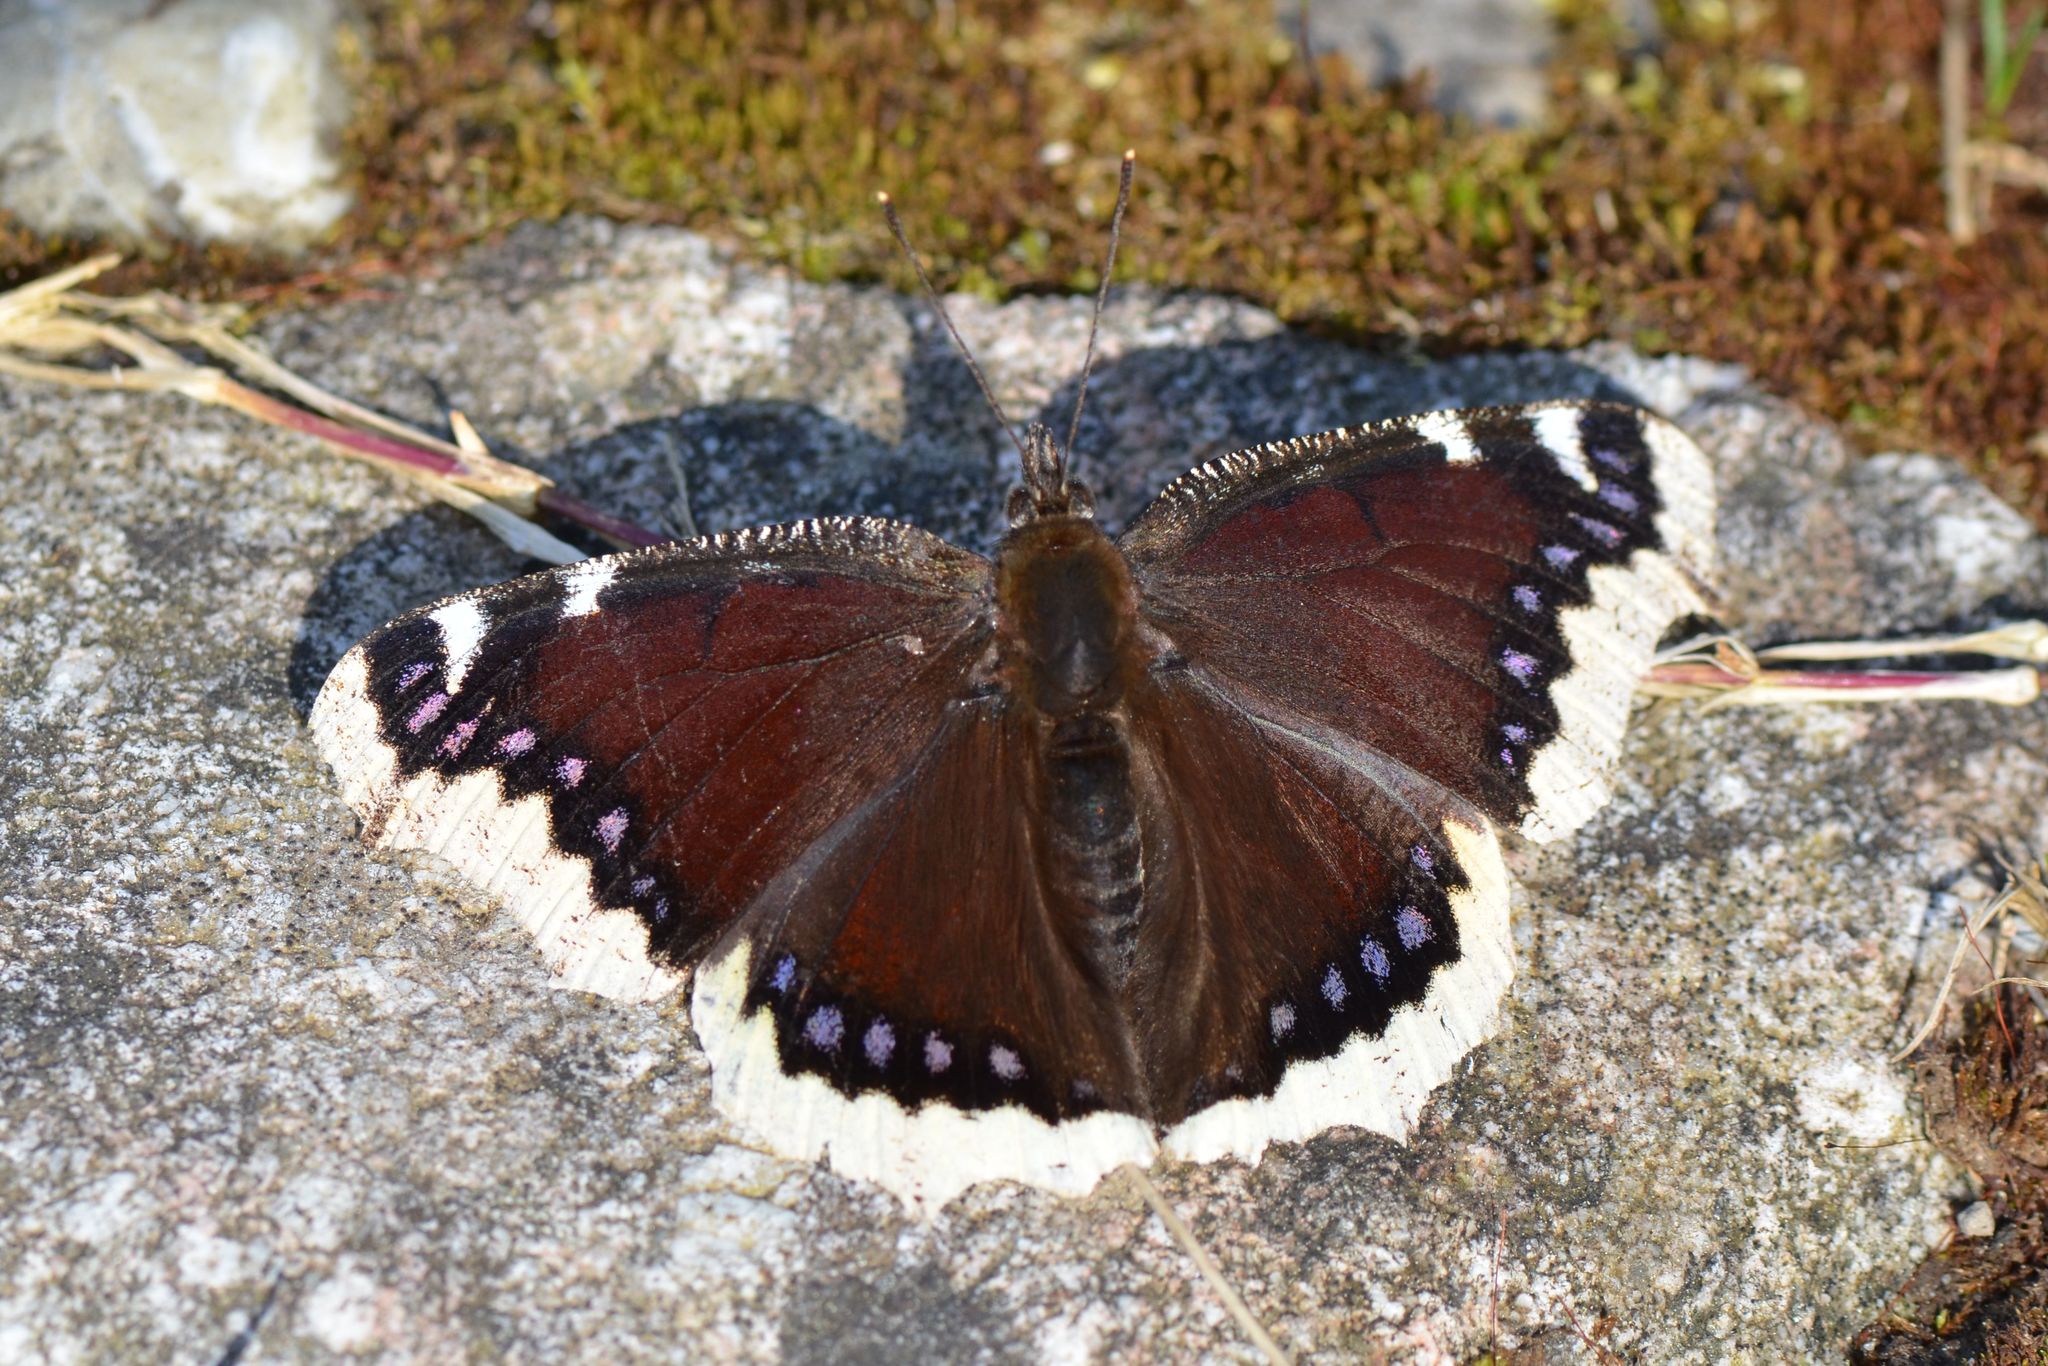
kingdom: Animalia
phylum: Arthropoda
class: Insecta
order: Lepidoptera
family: Nymphalidae
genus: Nymphalis
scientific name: Nymphalis antiopa
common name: Camberwell beauty
